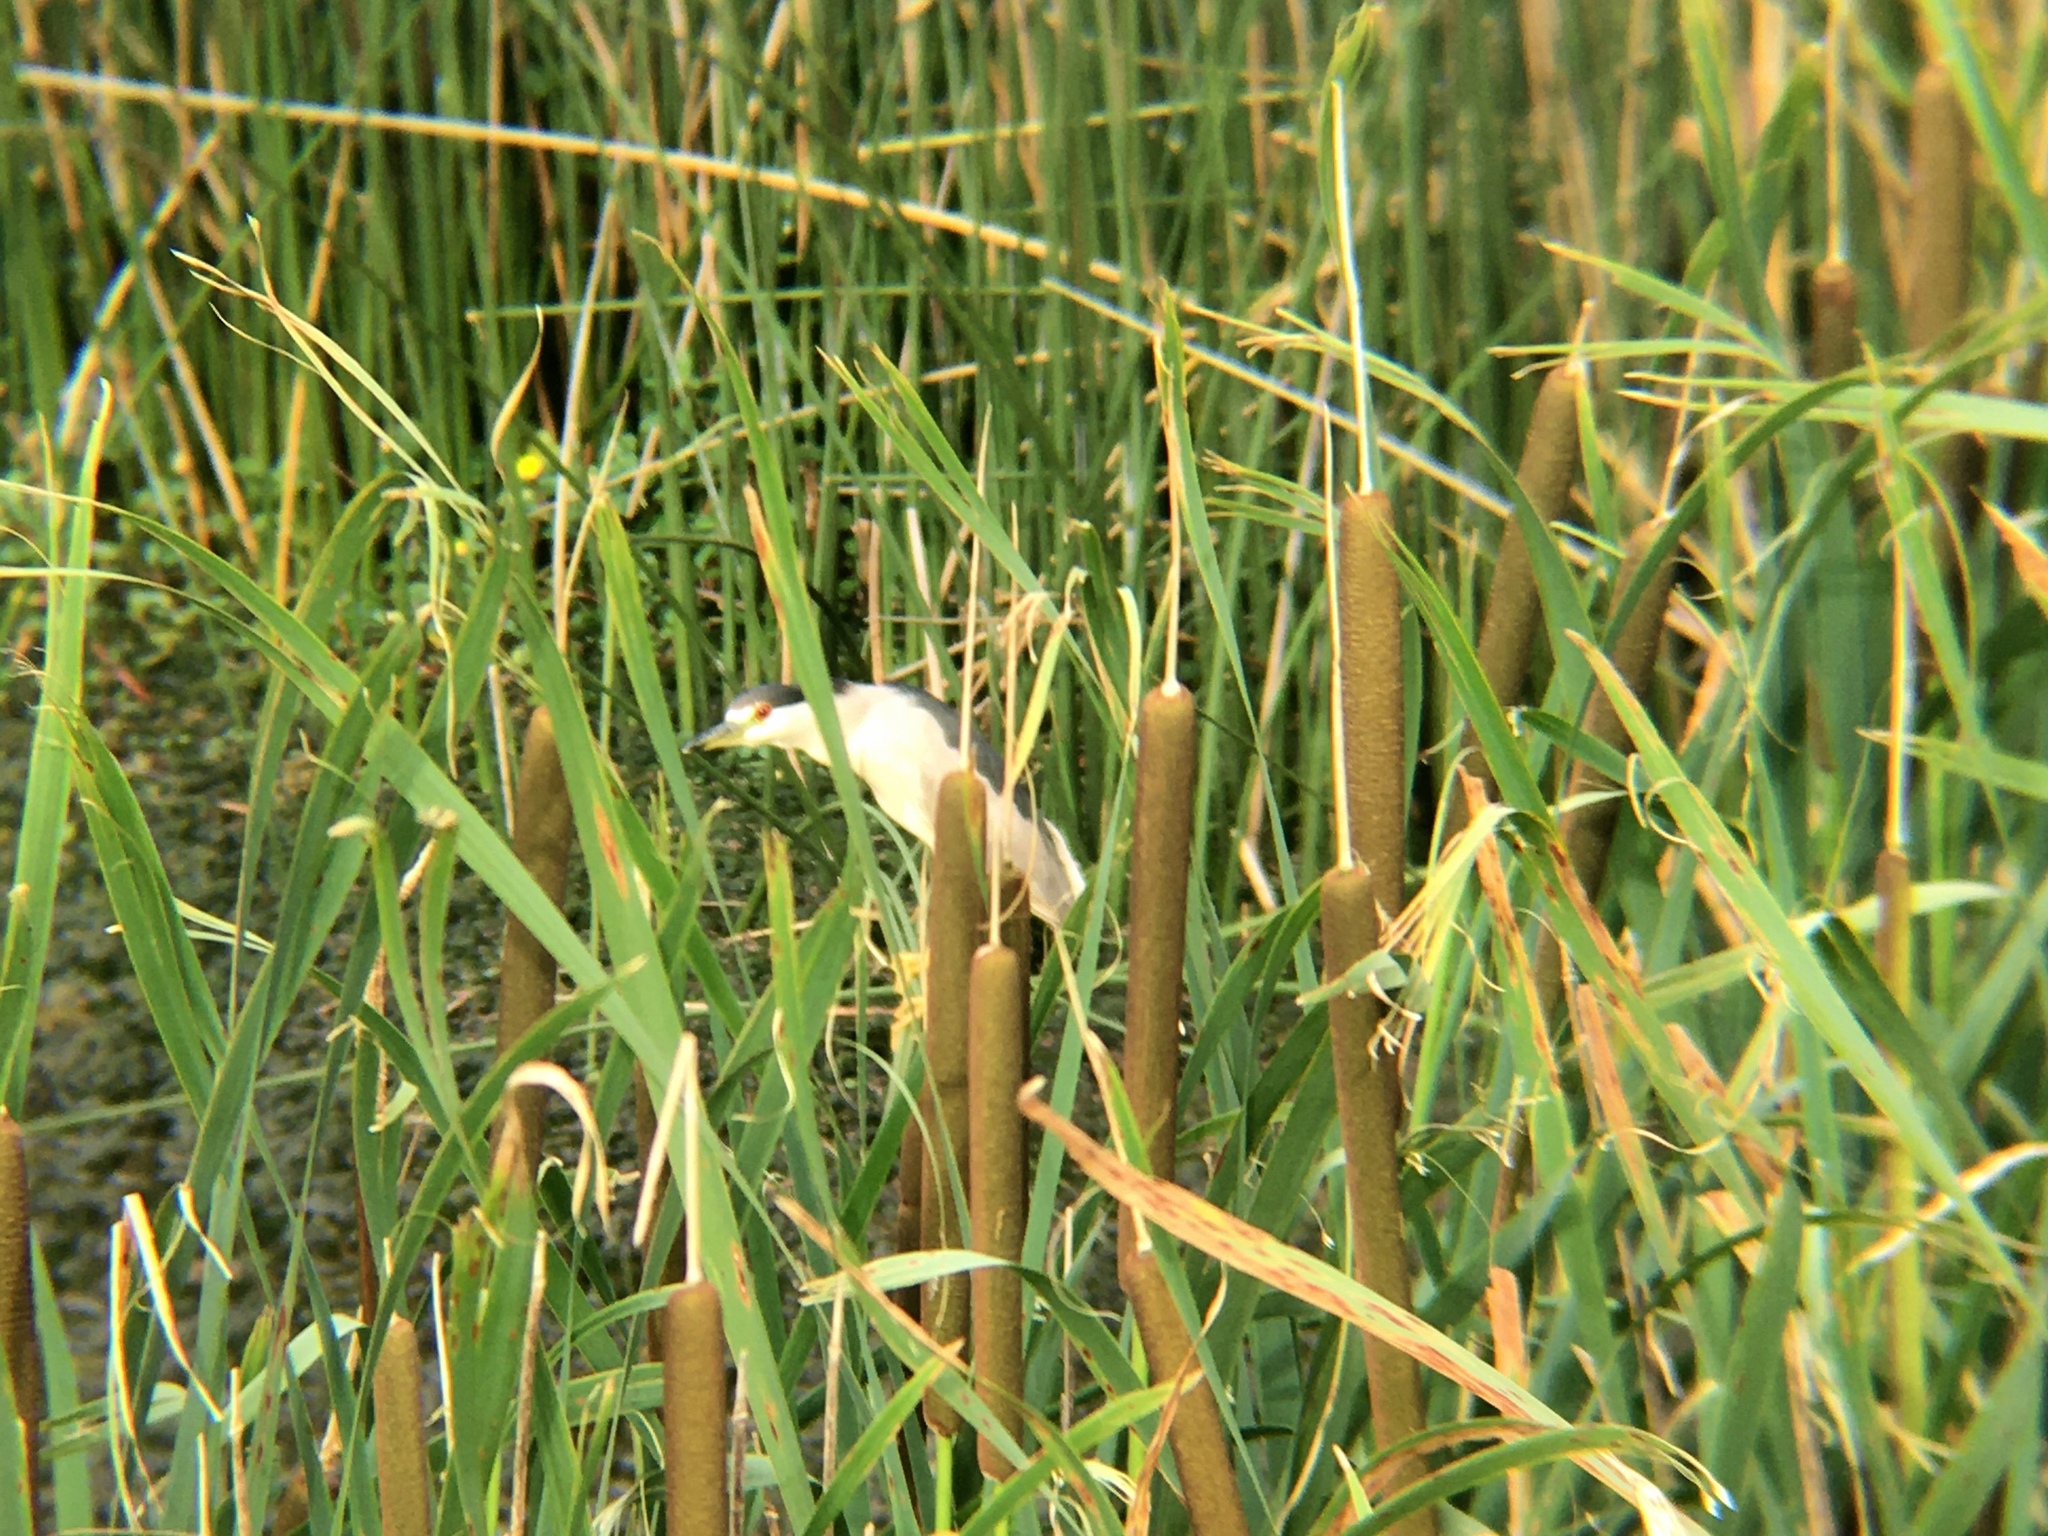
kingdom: Animalia
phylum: Chordata
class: Aves
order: Pelecaniformes
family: Ardeidae
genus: Nycticorax
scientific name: Nycticorax nycticorax
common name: Black-crowned night heron
